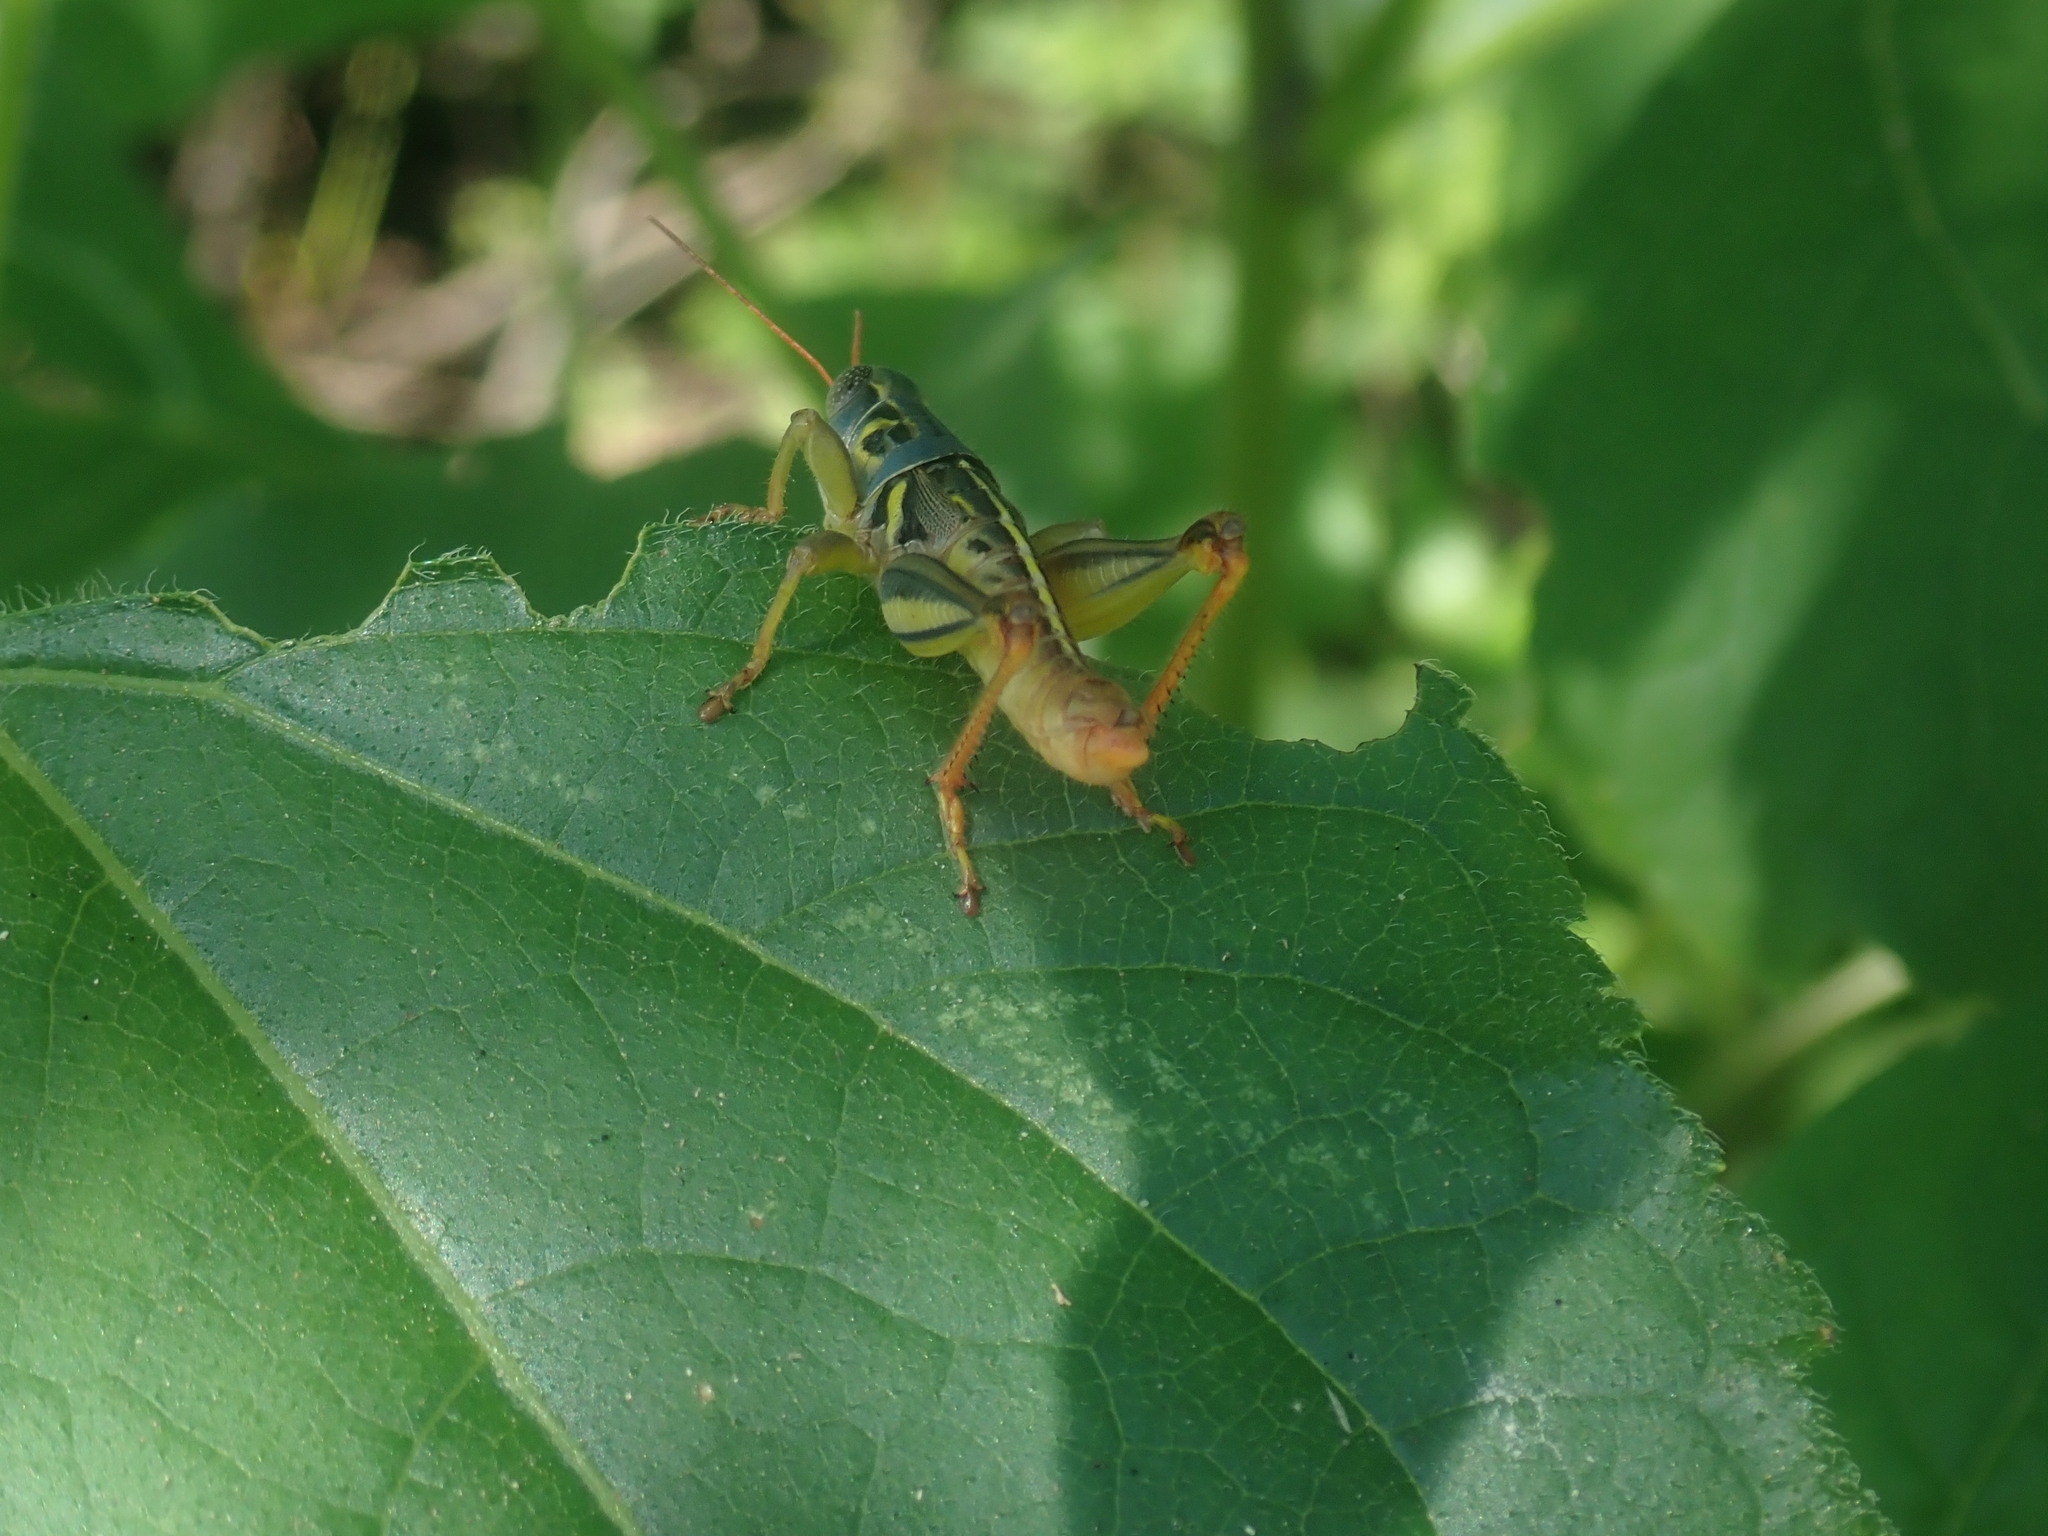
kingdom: Animalia
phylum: Arthropoda
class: Insecta
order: Orthoptera
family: Acrididae
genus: Barytettix
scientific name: Barytettix humphreysii
